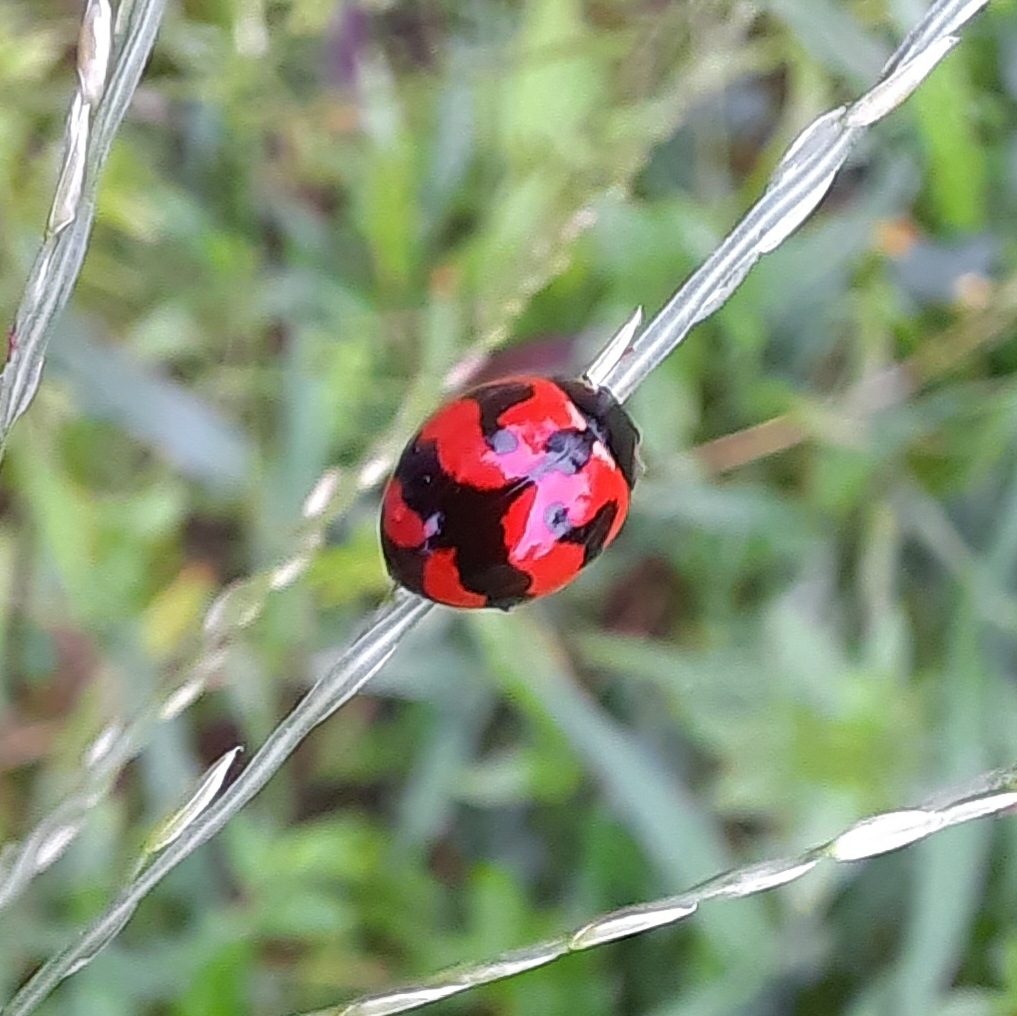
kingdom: Animalia
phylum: Arthropoda
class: Insecta
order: Coleoptera
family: Coccinellidae
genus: Coccinella
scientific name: Coccinella transversalis
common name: Transverse lady beetle
